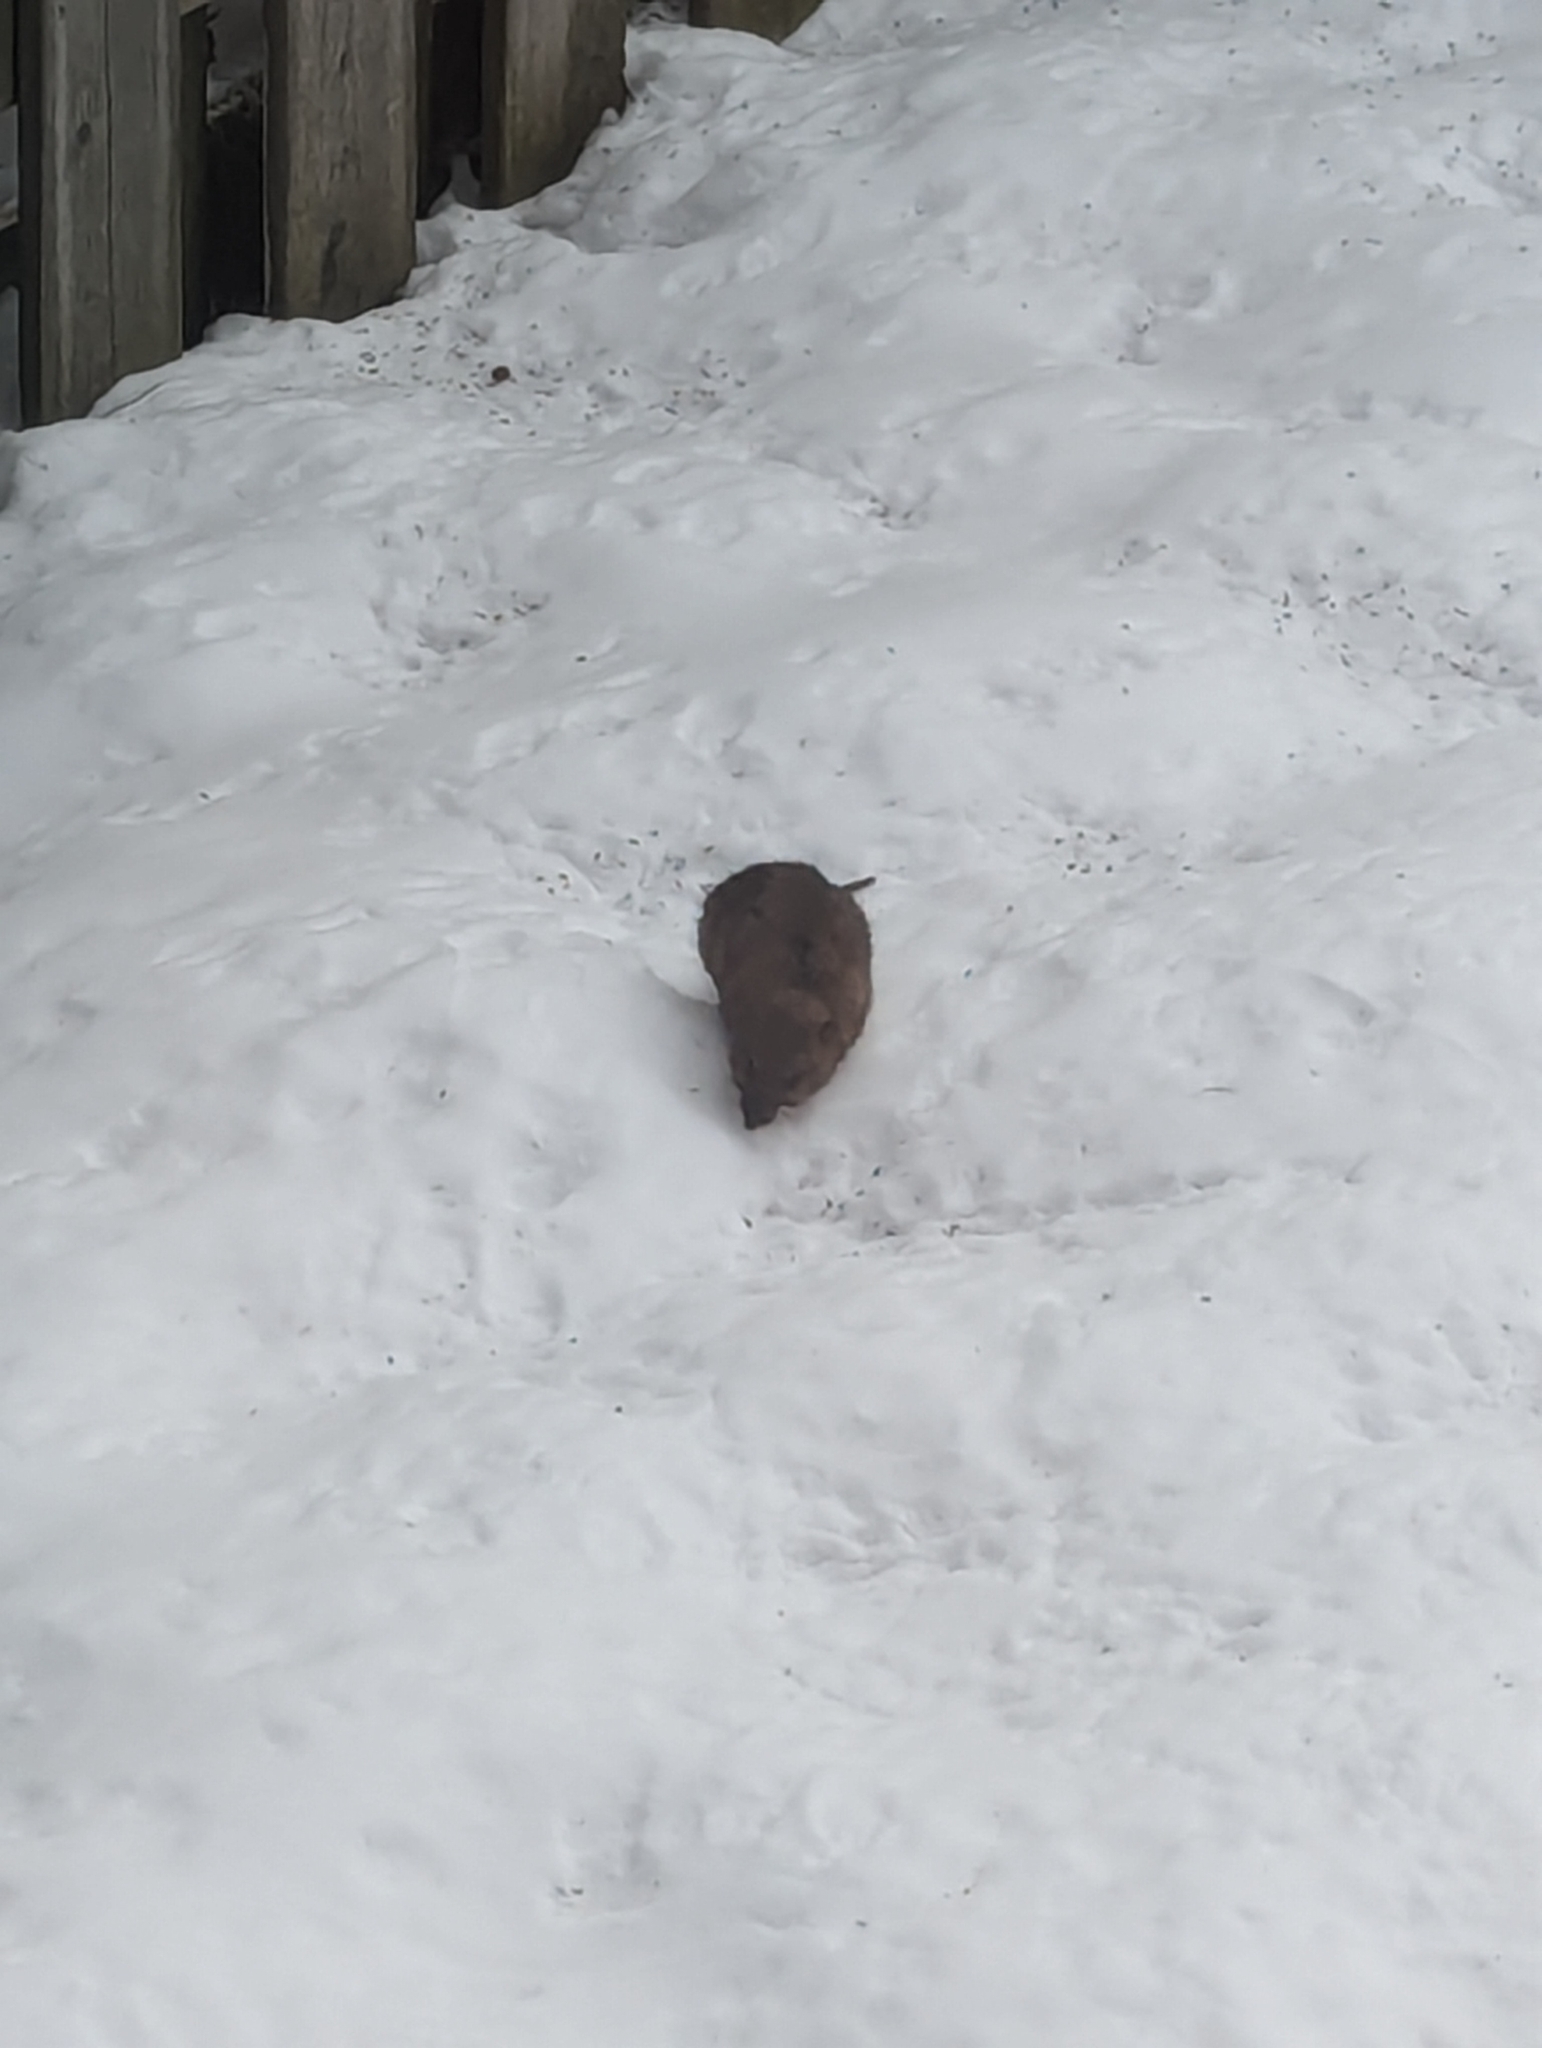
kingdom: Animalia
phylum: Chordata
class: Mammalia
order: Rodentia
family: Muridae
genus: Rattus
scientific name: Rattus norvegicus
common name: Brown rat
